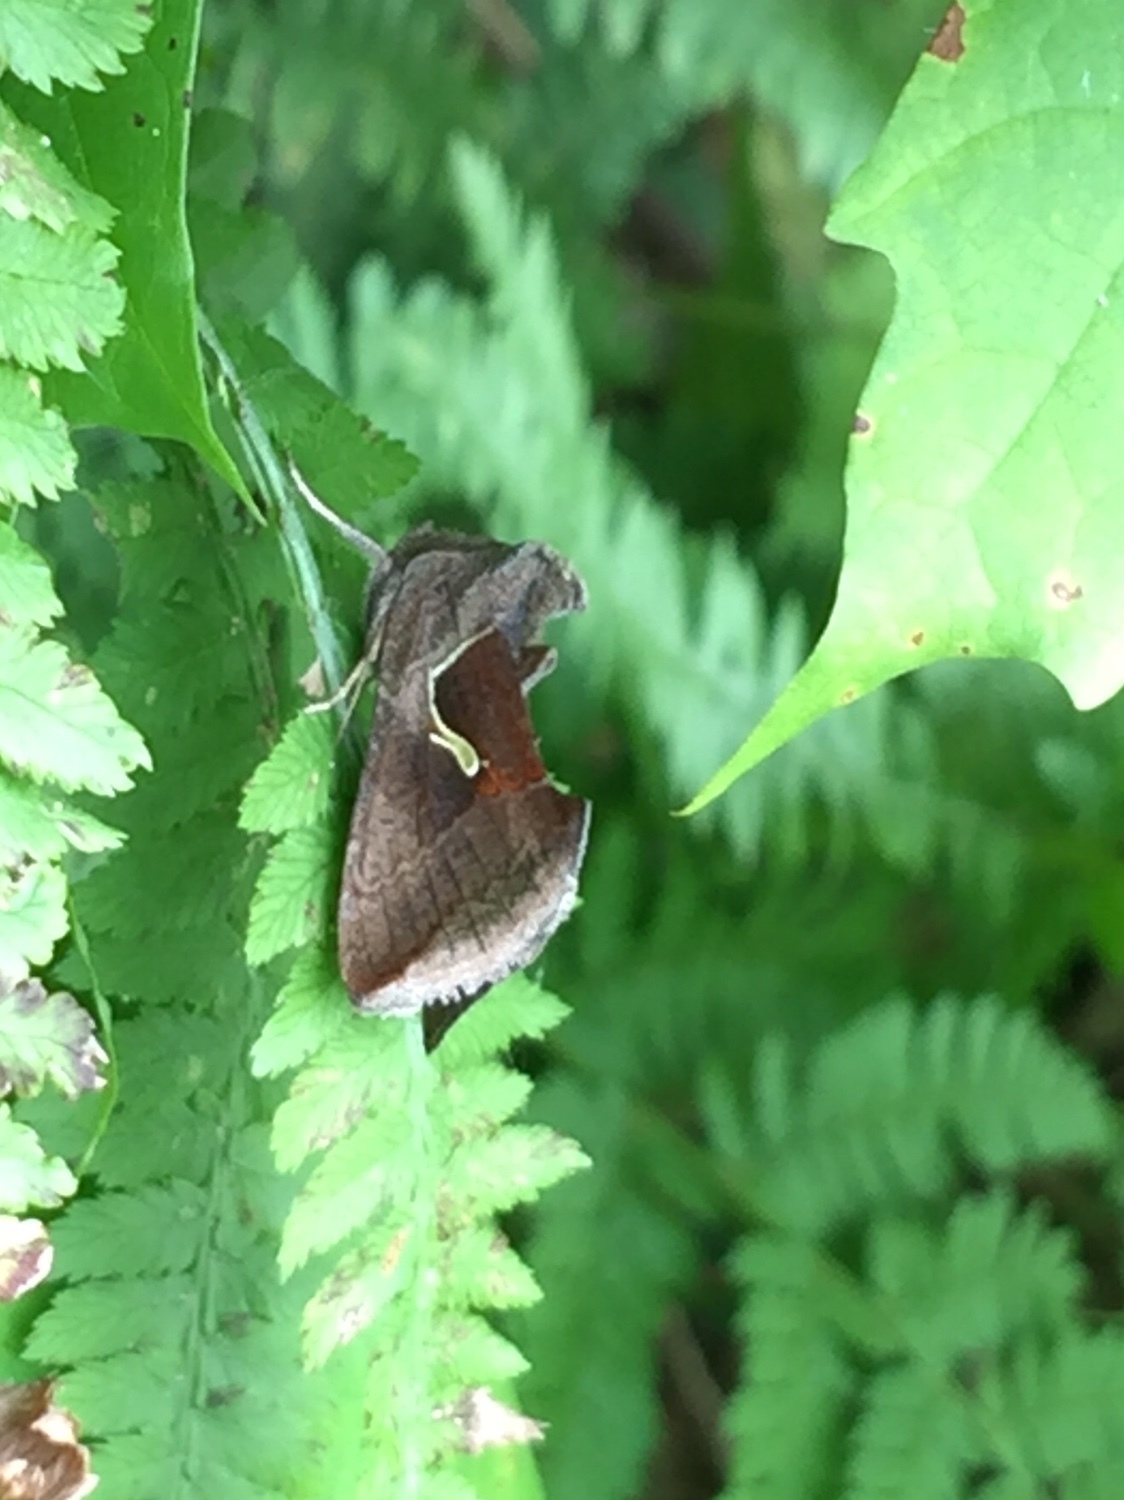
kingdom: Animalia
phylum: Arthropoda
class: Insecta
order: Lepidoptera
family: Noctuidae
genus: Anagrapha
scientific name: Anagrapha falcifera
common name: Celery looper
